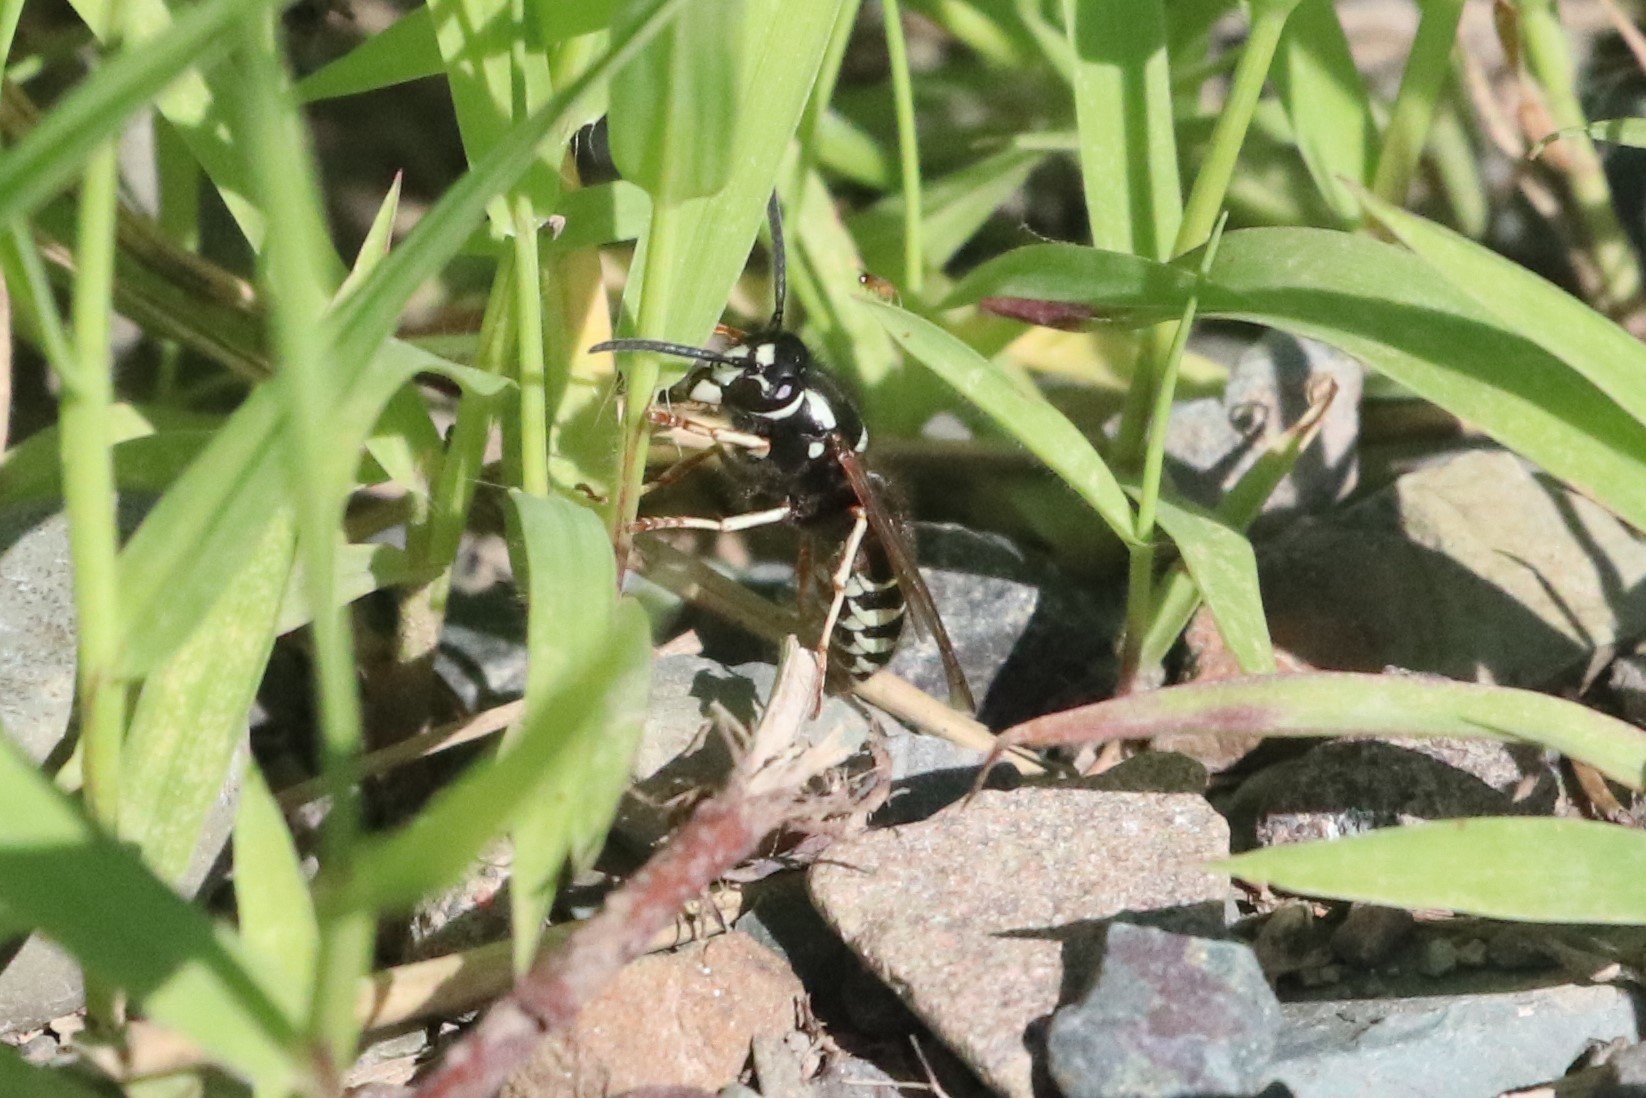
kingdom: Animalia
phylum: Arthropoda
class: Insecta
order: Hymenoptera
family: Vespidae
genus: Vespula
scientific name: Vespula consobrina
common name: Blackjacket
